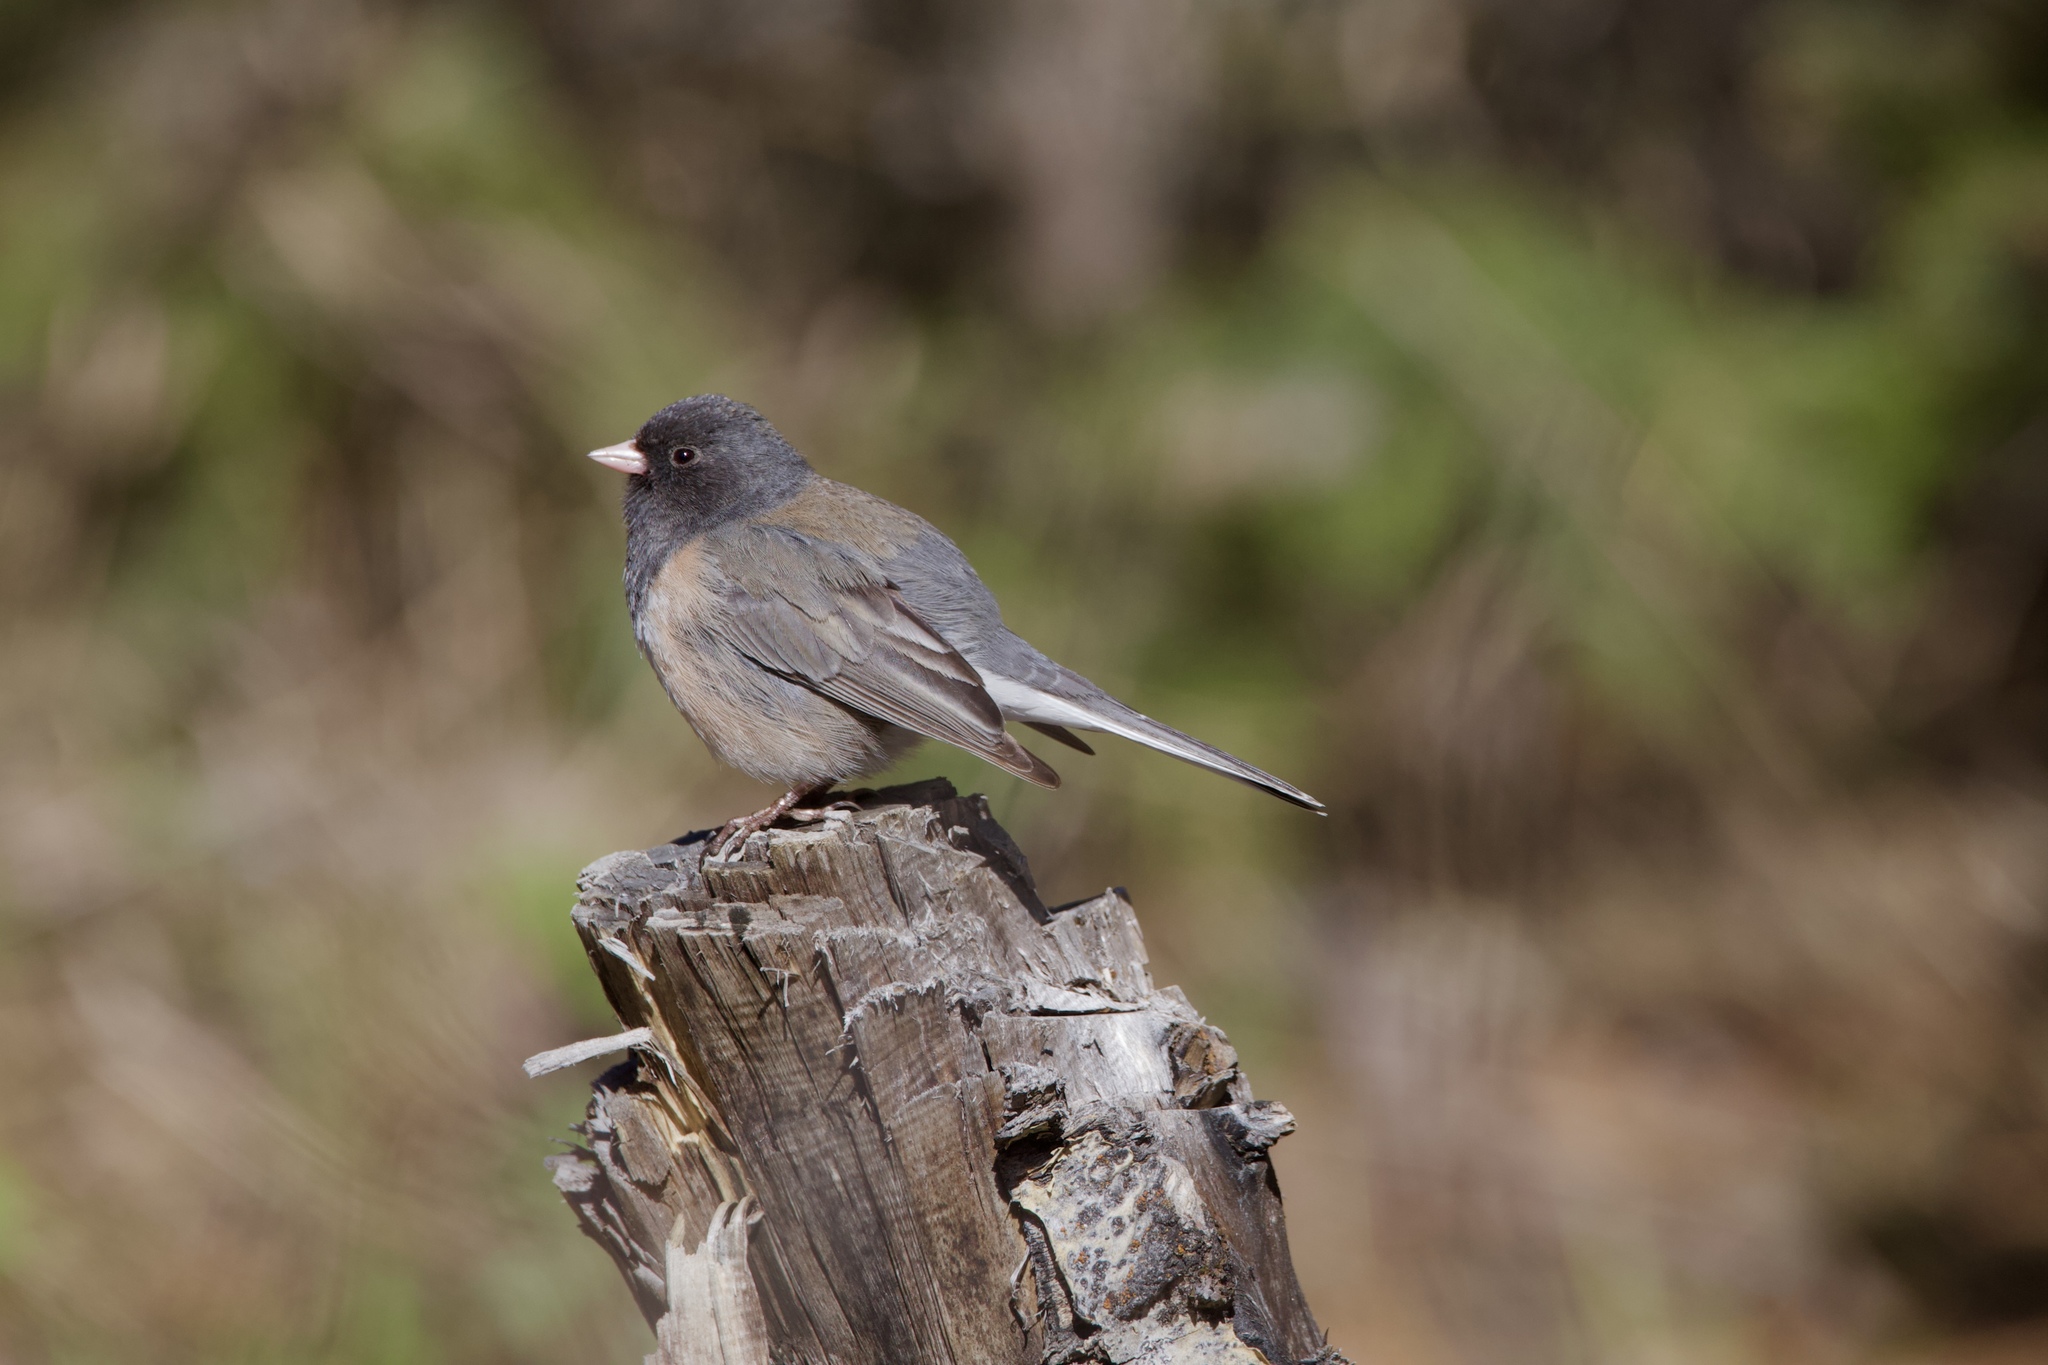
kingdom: Animalia
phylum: Chordata
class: Aves
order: Passeriformes
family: Passerellidae
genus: Junco
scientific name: Junco hyemalis
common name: Dark-eyed junco
